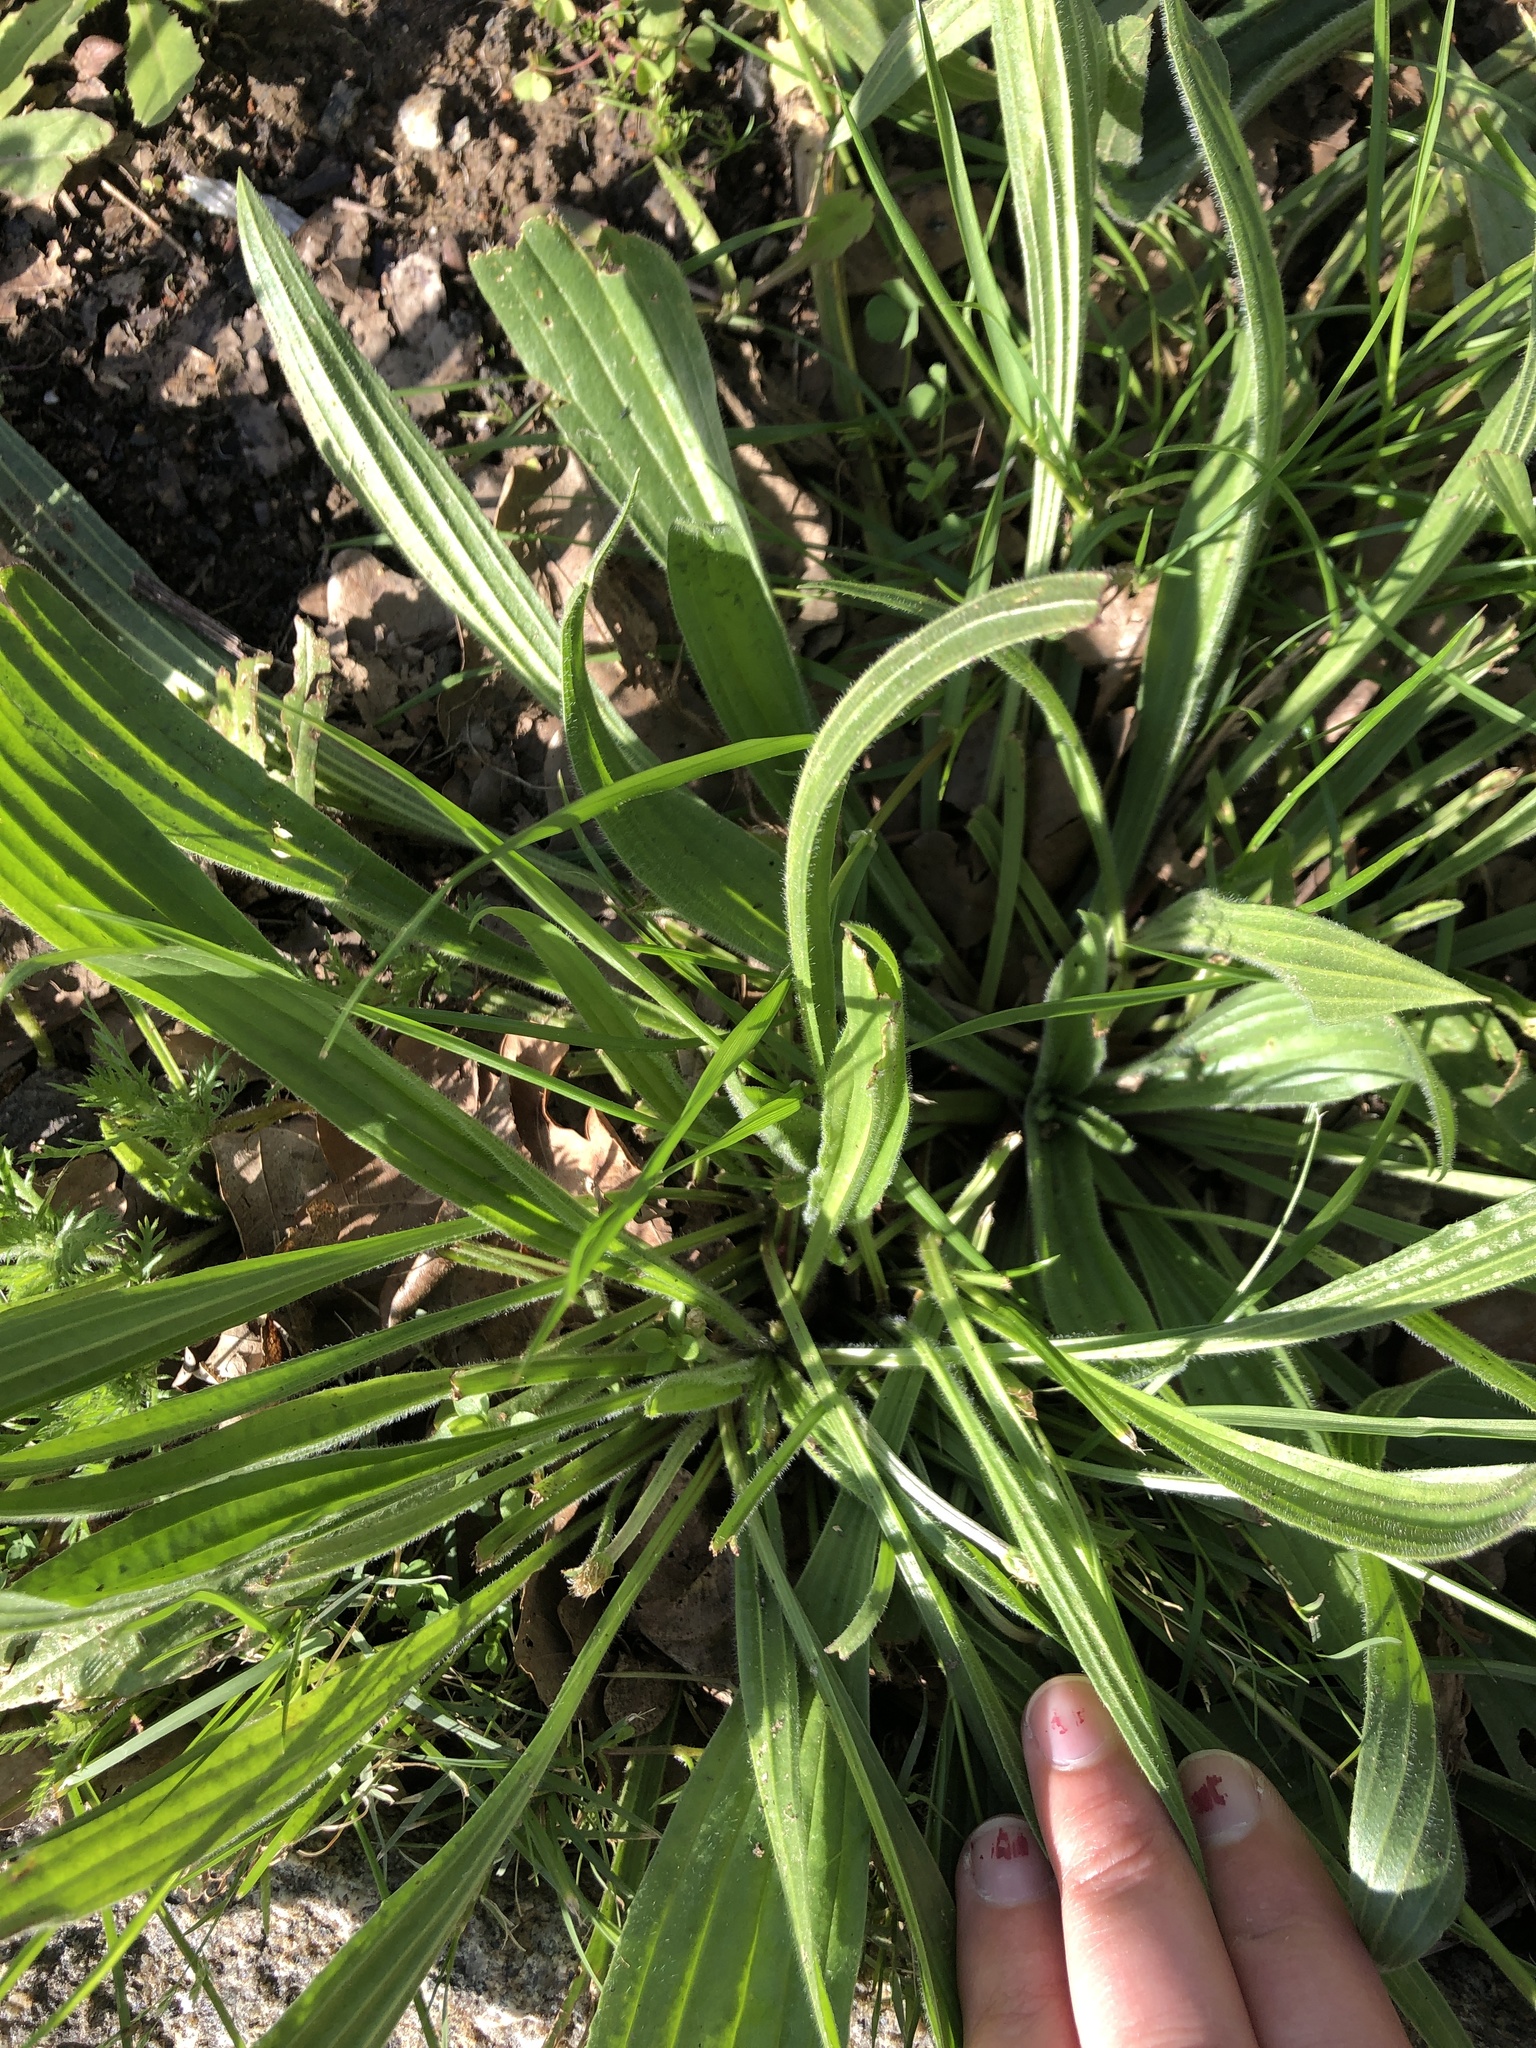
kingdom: Plantae
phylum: Tracheophyta
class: Magnoliopsida
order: Lamiales
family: Plantaginaceae
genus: Plantago
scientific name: Plantago lanceolata
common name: Ribwort plantain
